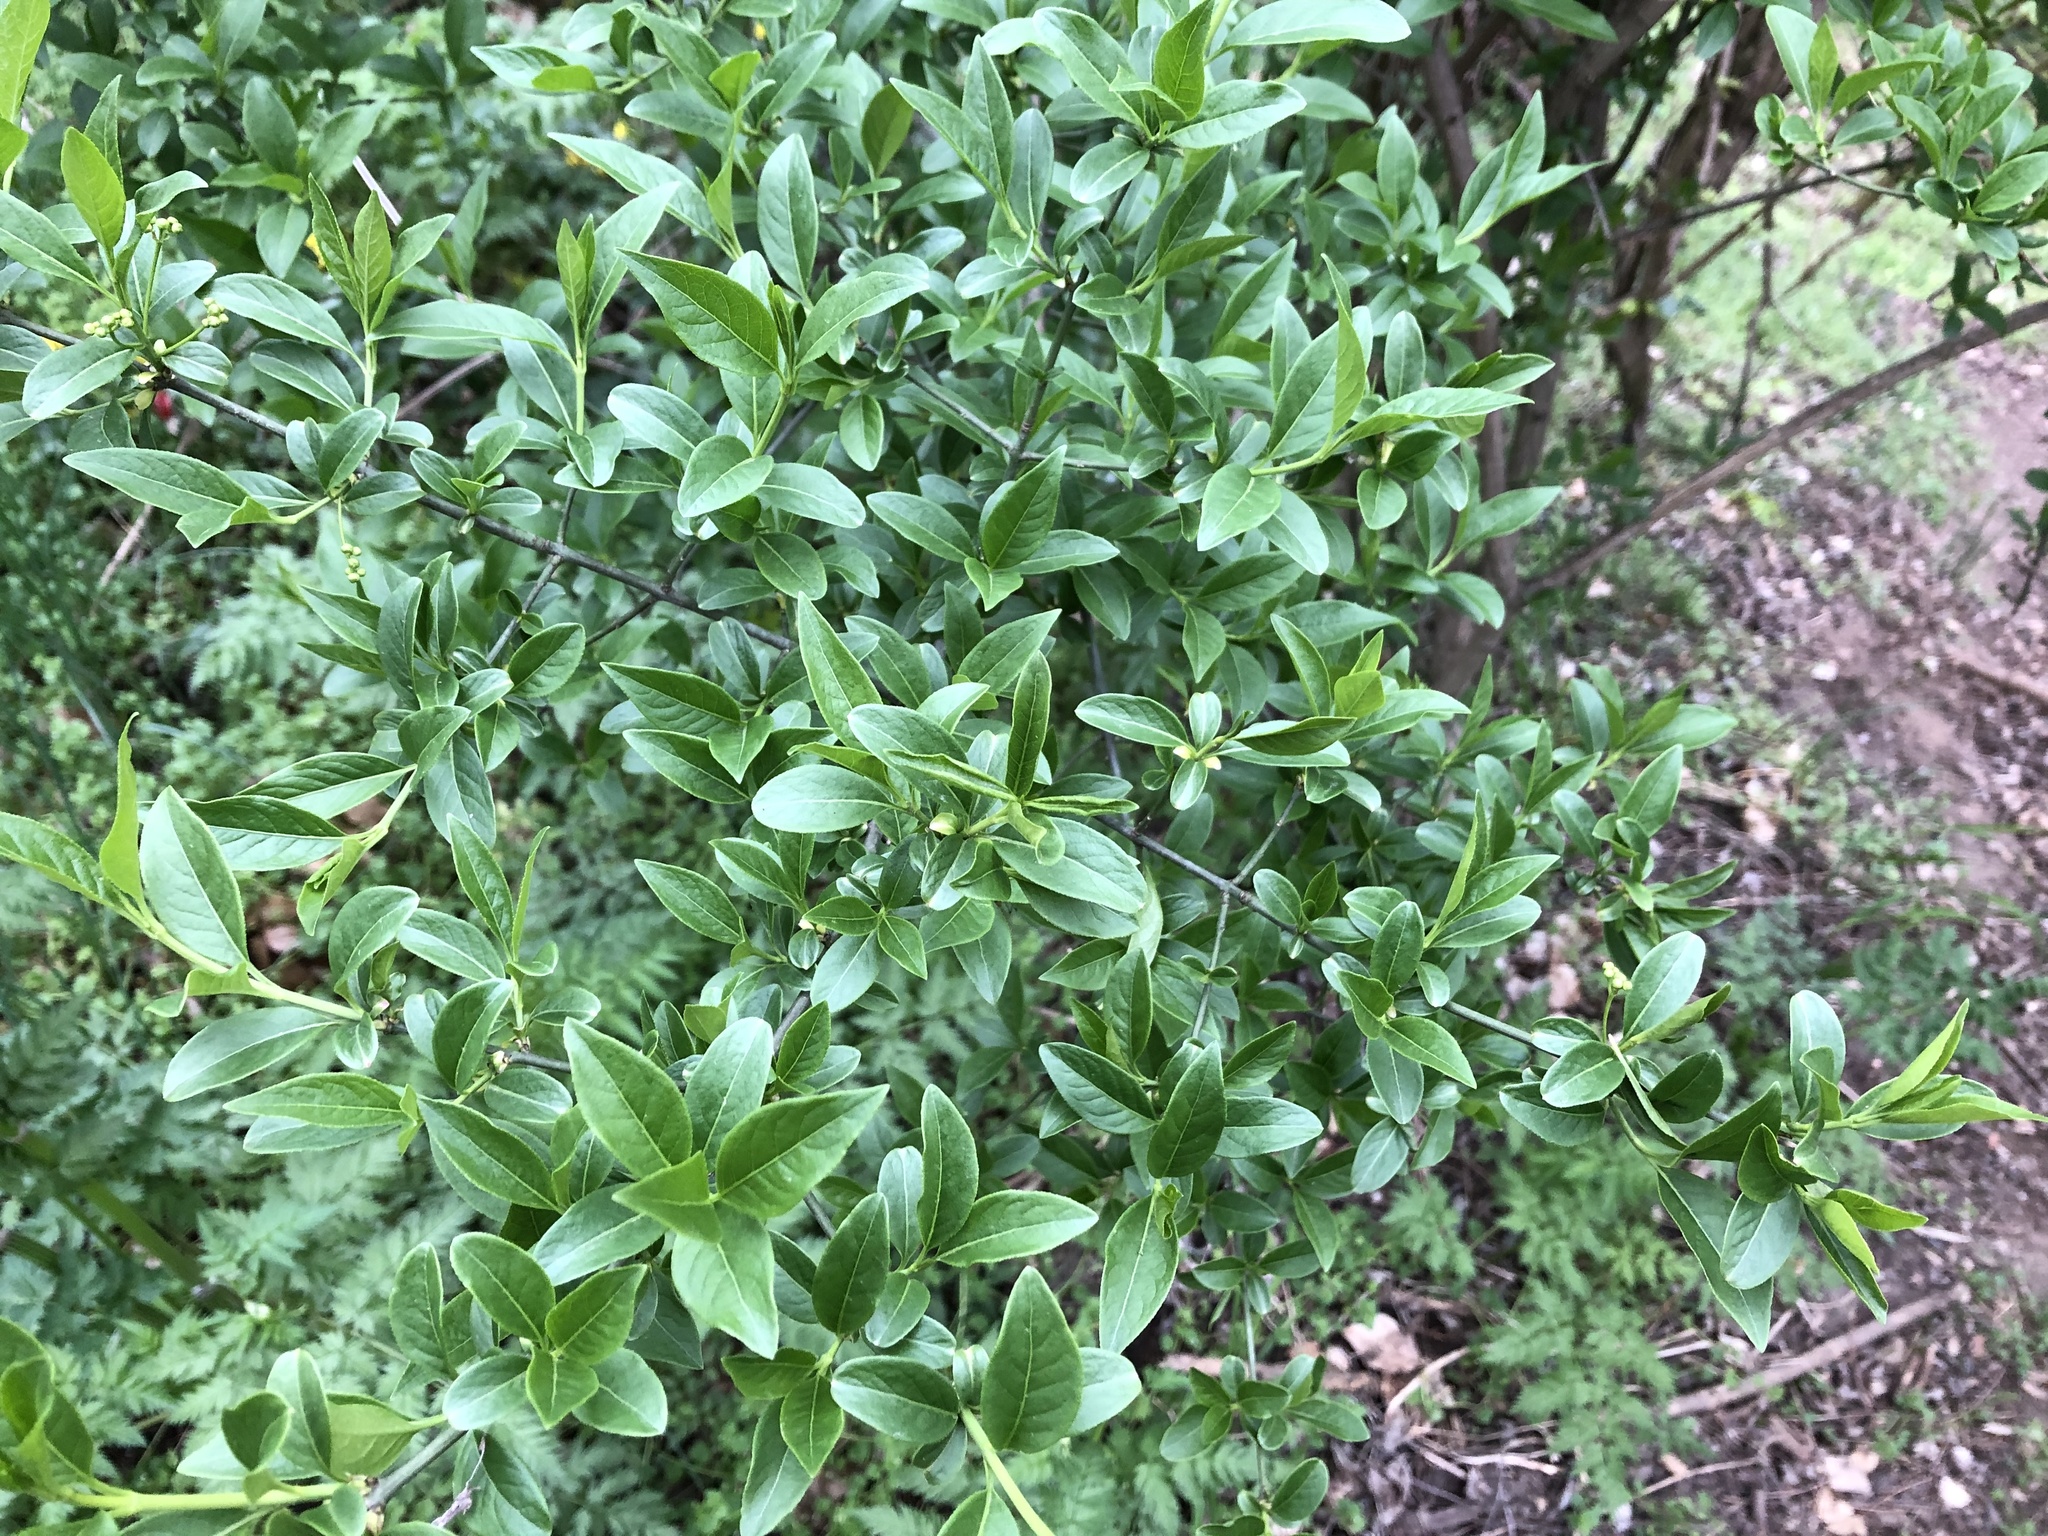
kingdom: Plantae
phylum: Tracheophyta
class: Magnoliopsida
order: Lamiales
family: Oleaceae
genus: Ligustrum
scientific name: Ligustrum vulgare
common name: Wild privet
